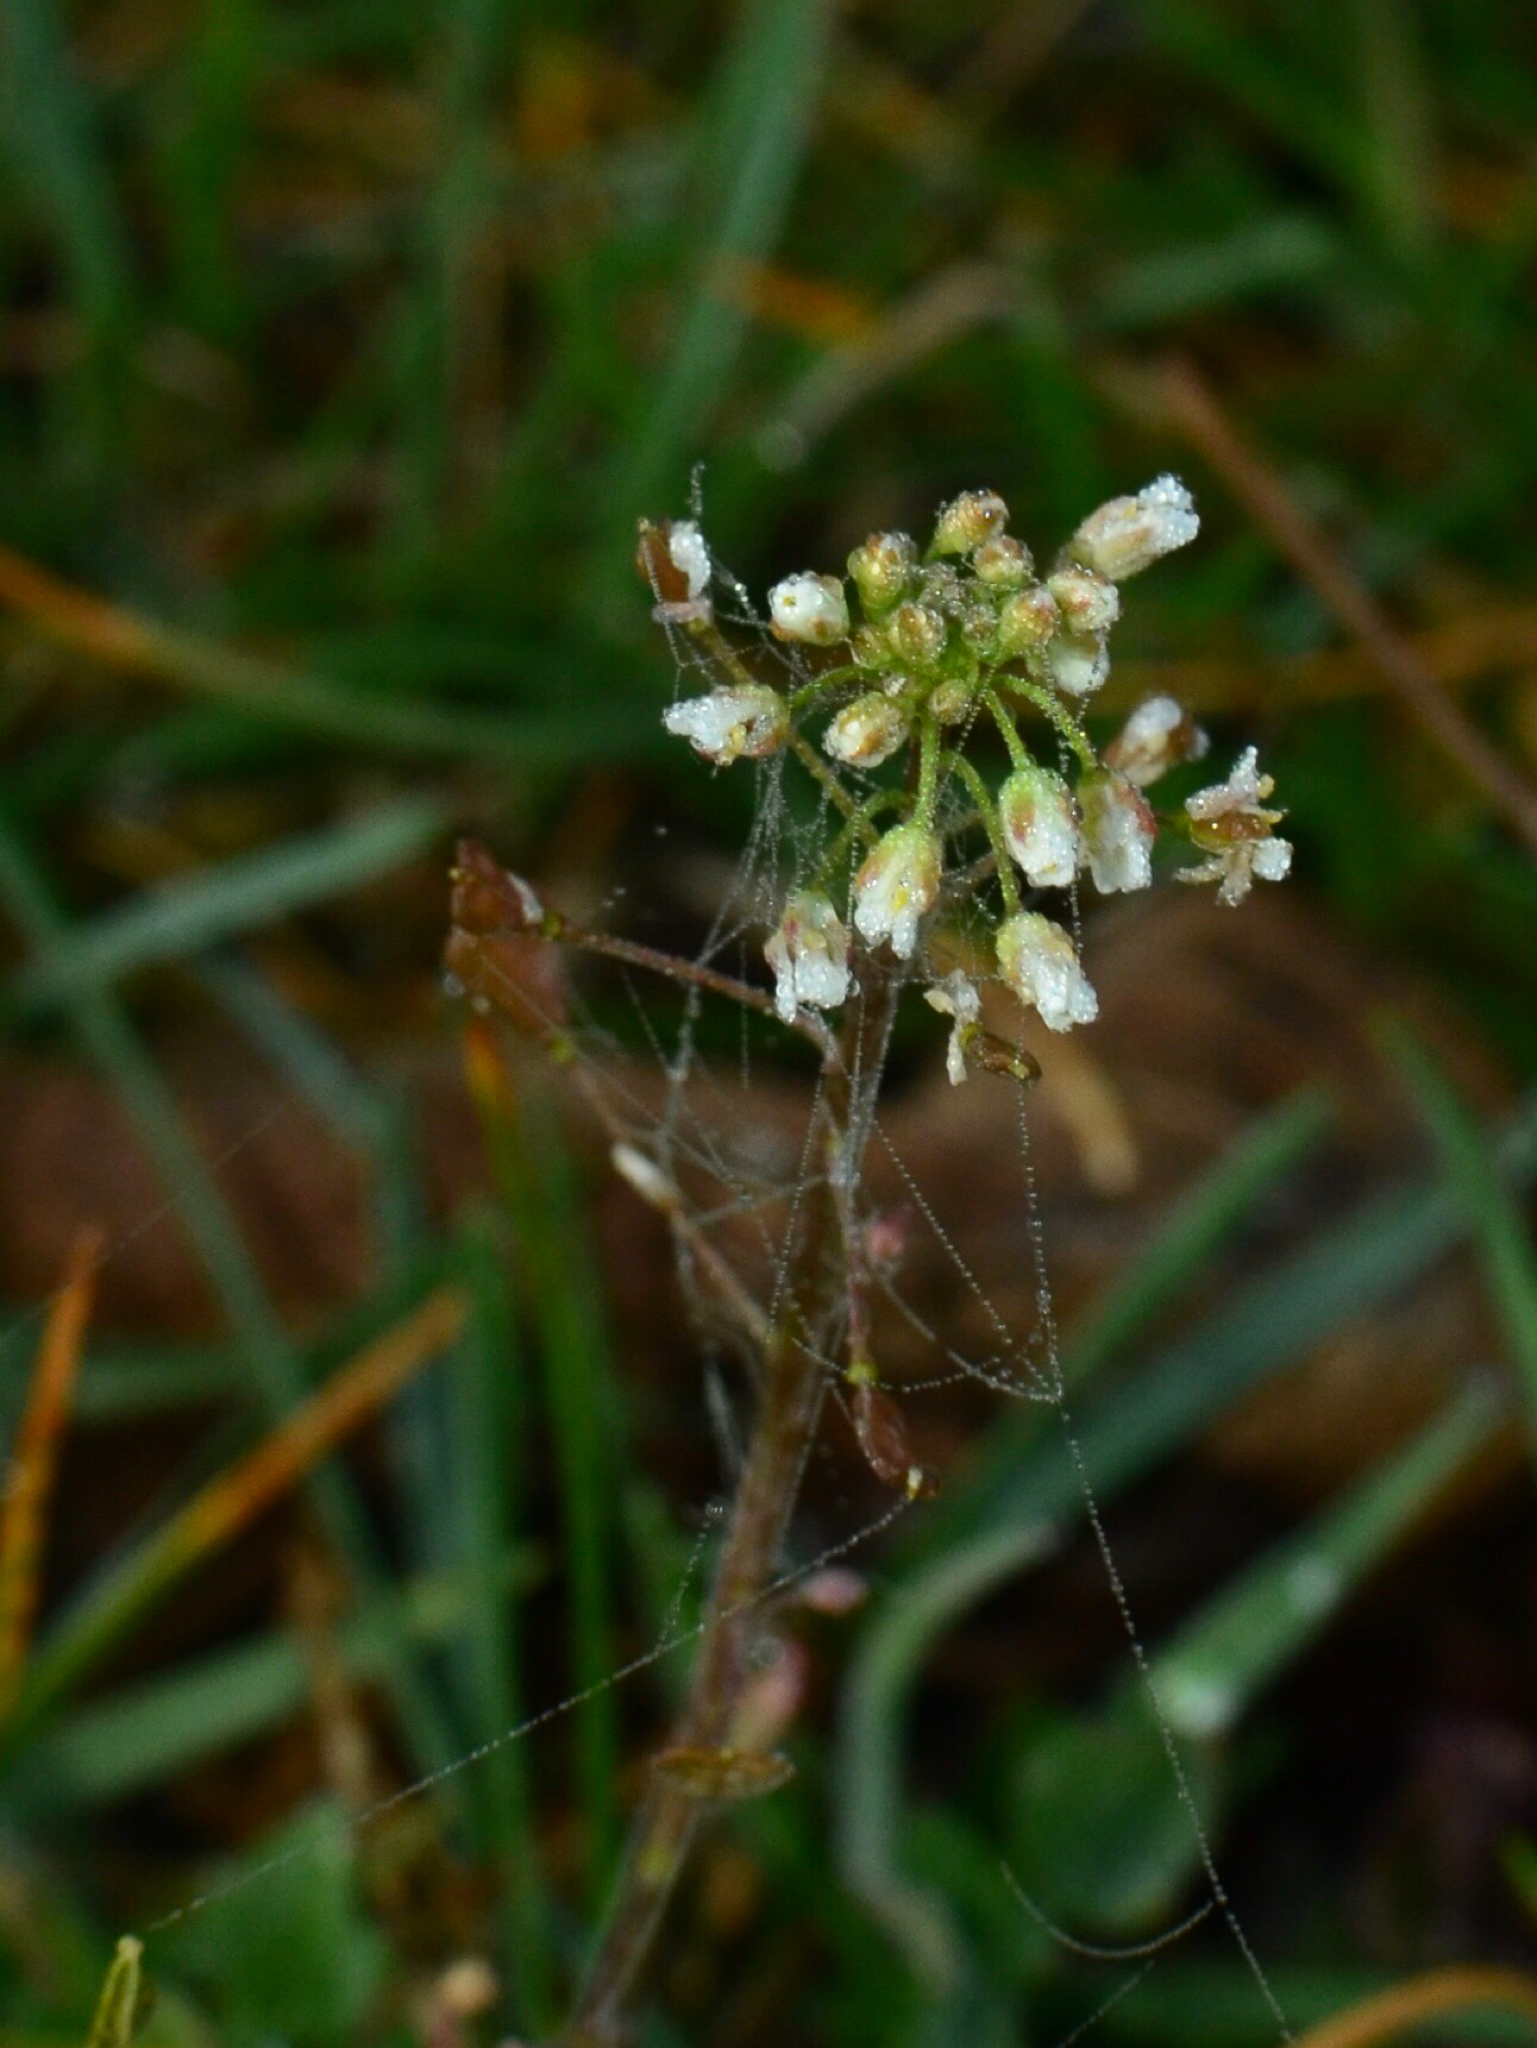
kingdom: Plantae
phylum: Tracheophyta
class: Magnoliopsida
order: Brassicales
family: Brassicaceae
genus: Capsella
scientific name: Capsella bursa-pastoris
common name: Shepherd's purse
